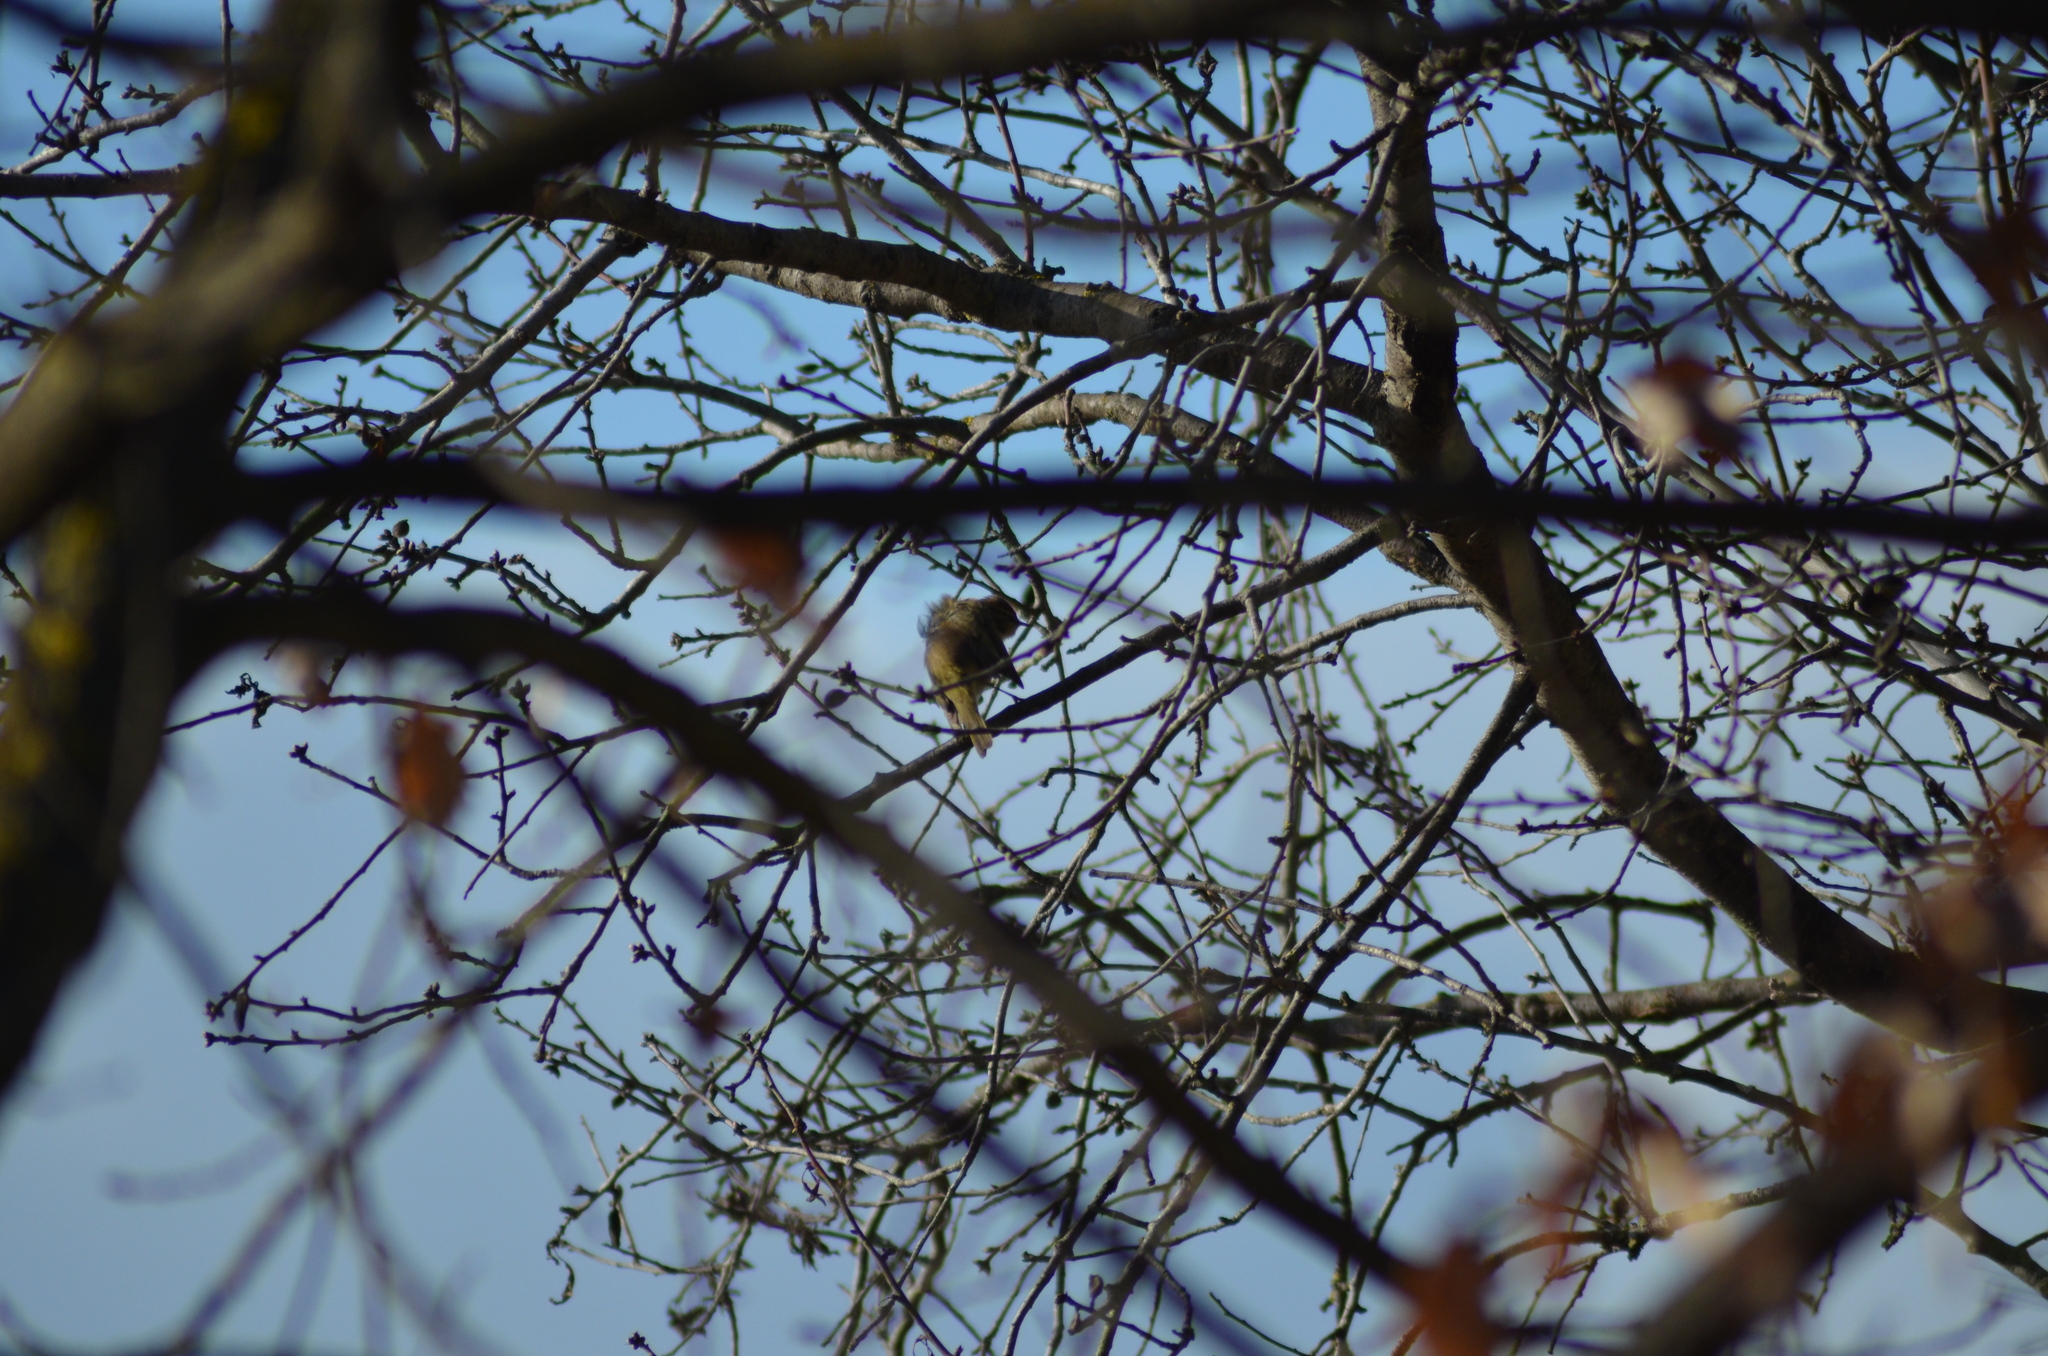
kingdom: Animalia
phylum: Chordata
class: Aves
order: Passeriformes
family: Phylloscopidae
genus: Phylloscopus
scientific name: Phylloscopus collybita
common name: Common chiffchaff
